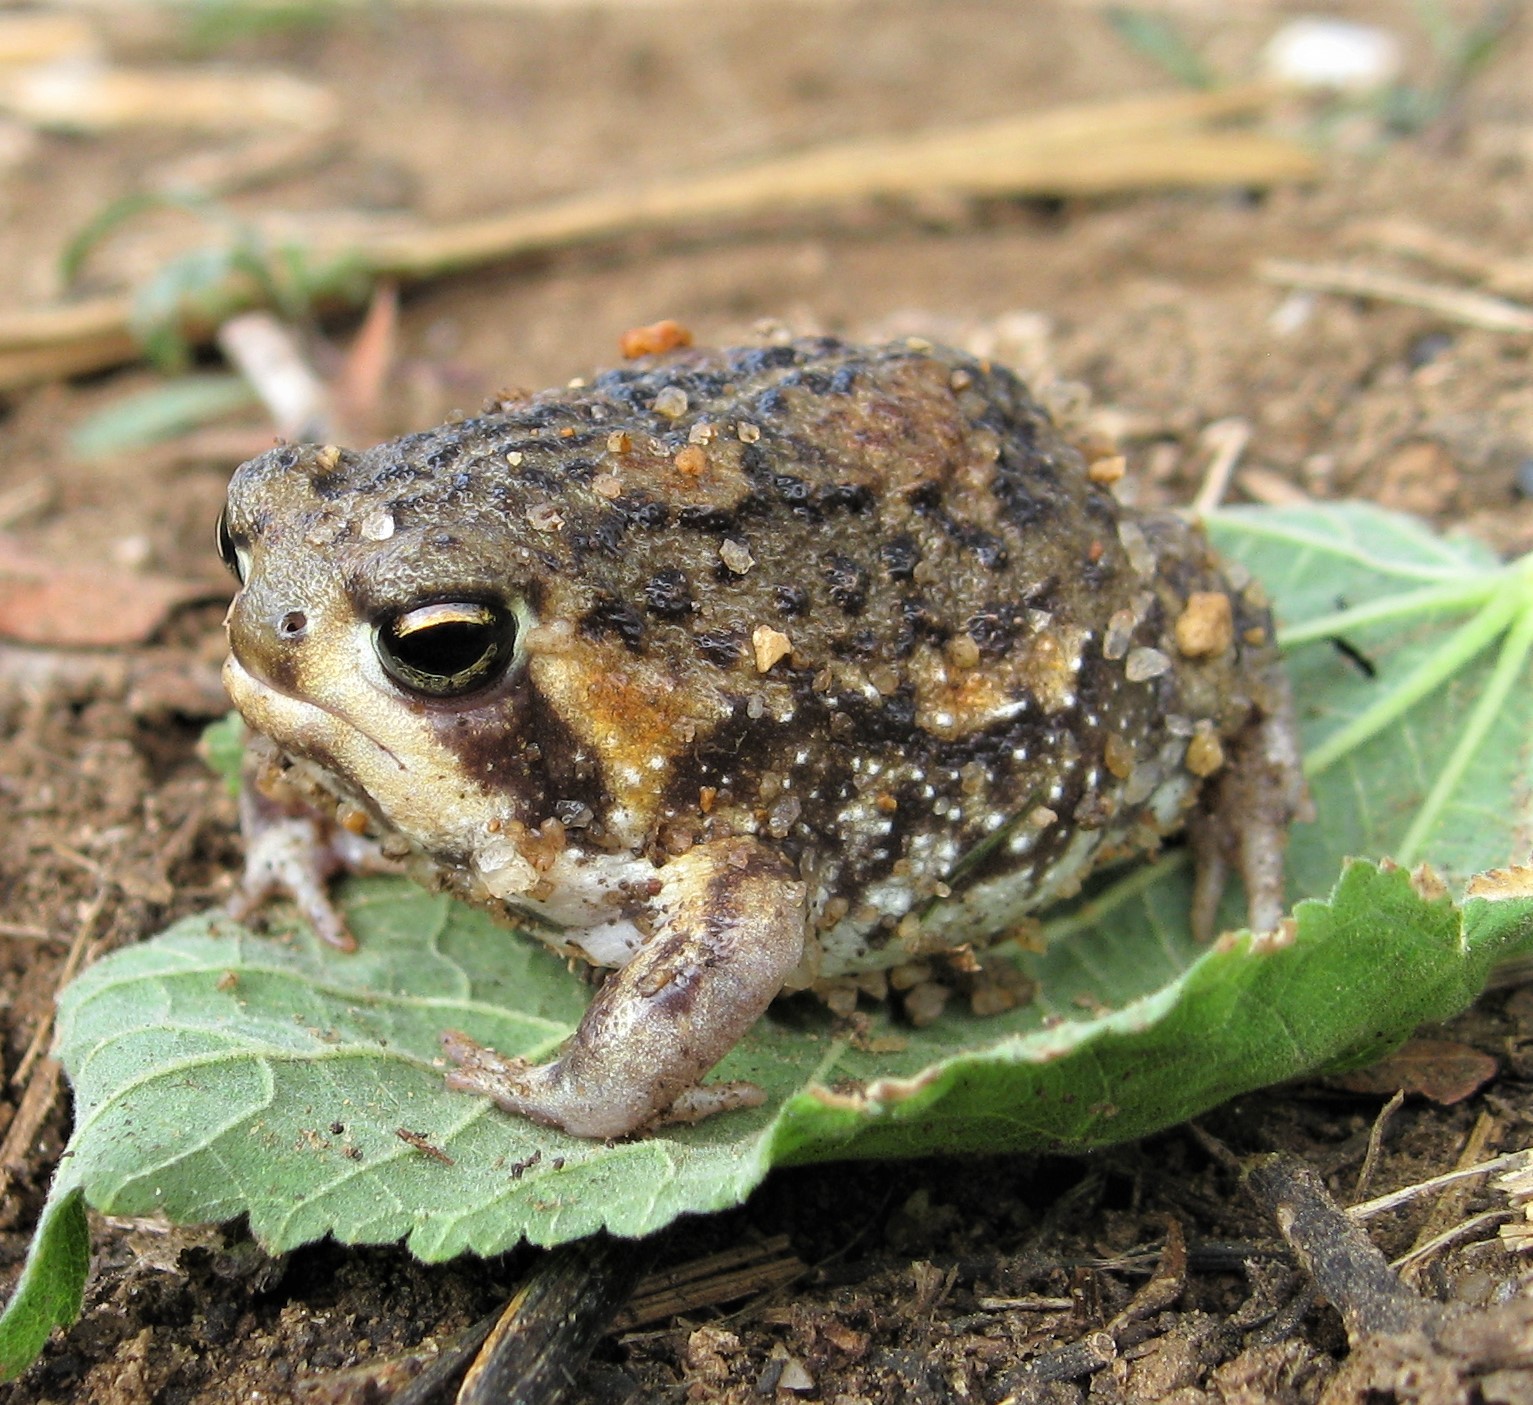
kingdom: Animalia
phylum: Chordata
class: Amphibia
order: Anura
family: Brevicipitidae
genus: Breviceps
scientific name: Breviceps adspersus
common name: Common rain frog
